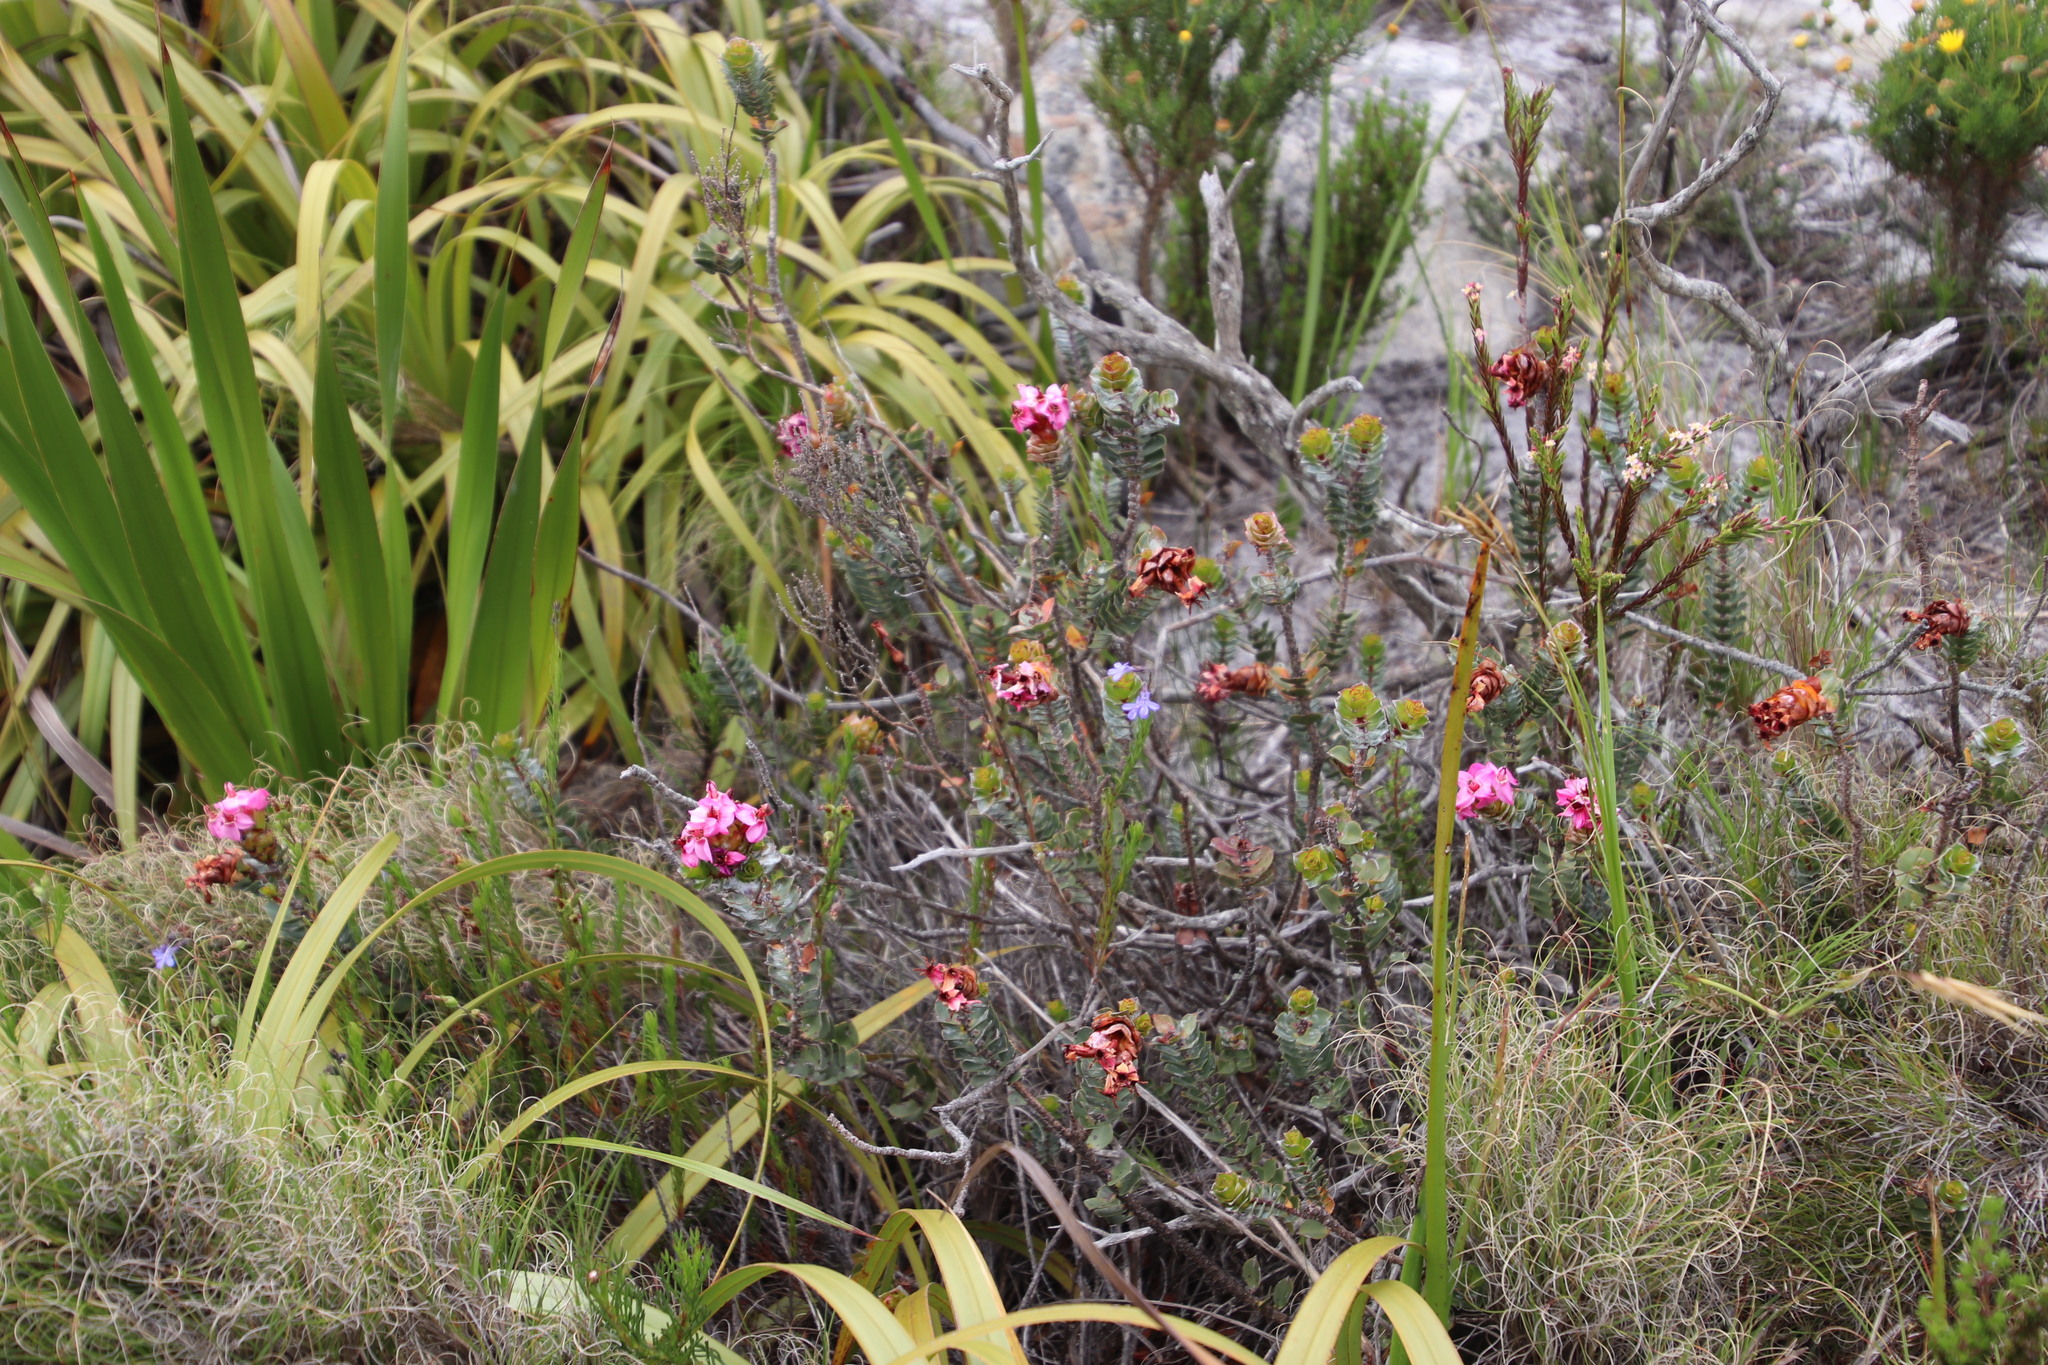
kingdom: Plantae
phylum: Tracheophyta
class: Magnoliopsida
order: Myrtales
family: Penaeaceae
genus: Saltera
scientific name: Saltera sarcocolla
